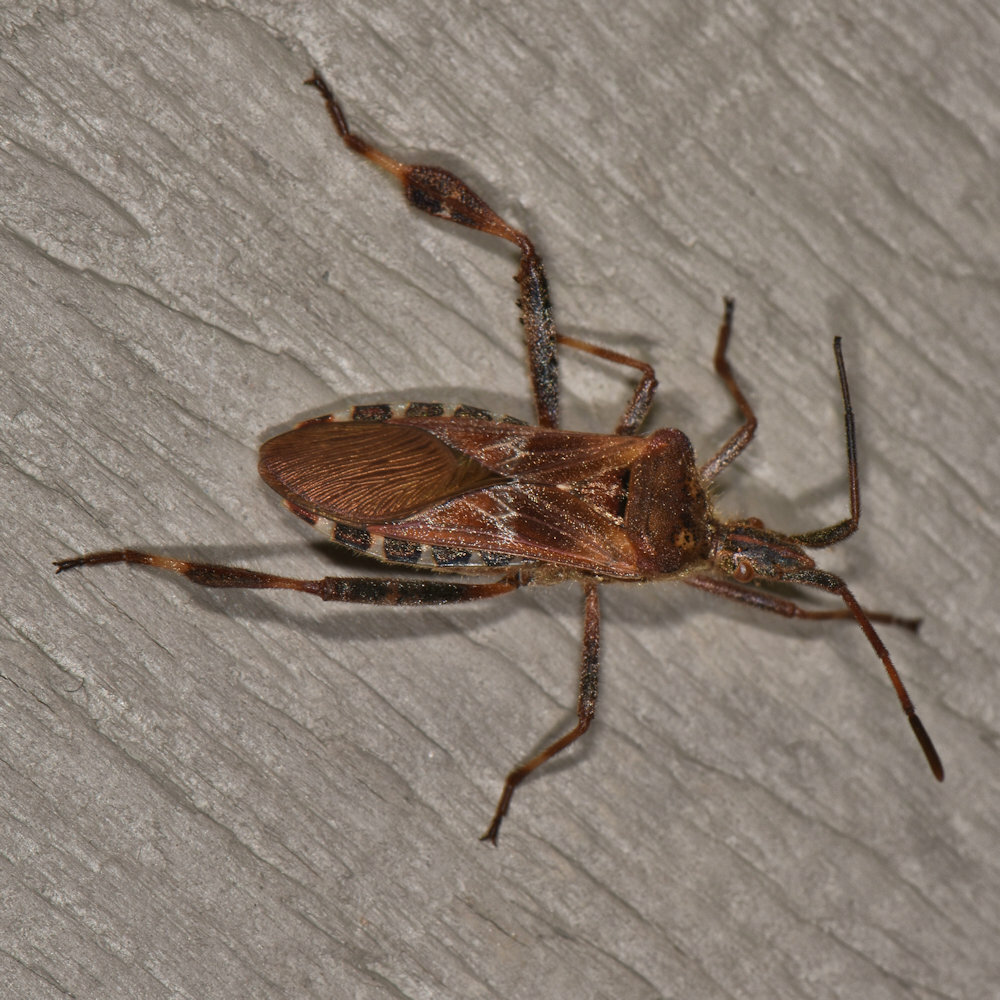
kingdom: Animalia
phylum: Arthropoda
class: Insecta
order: Hemiptera
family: Coreidae
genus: Leptoglossus
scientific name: Leptoglossus occidentalis
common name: Western conifer-seed bug
